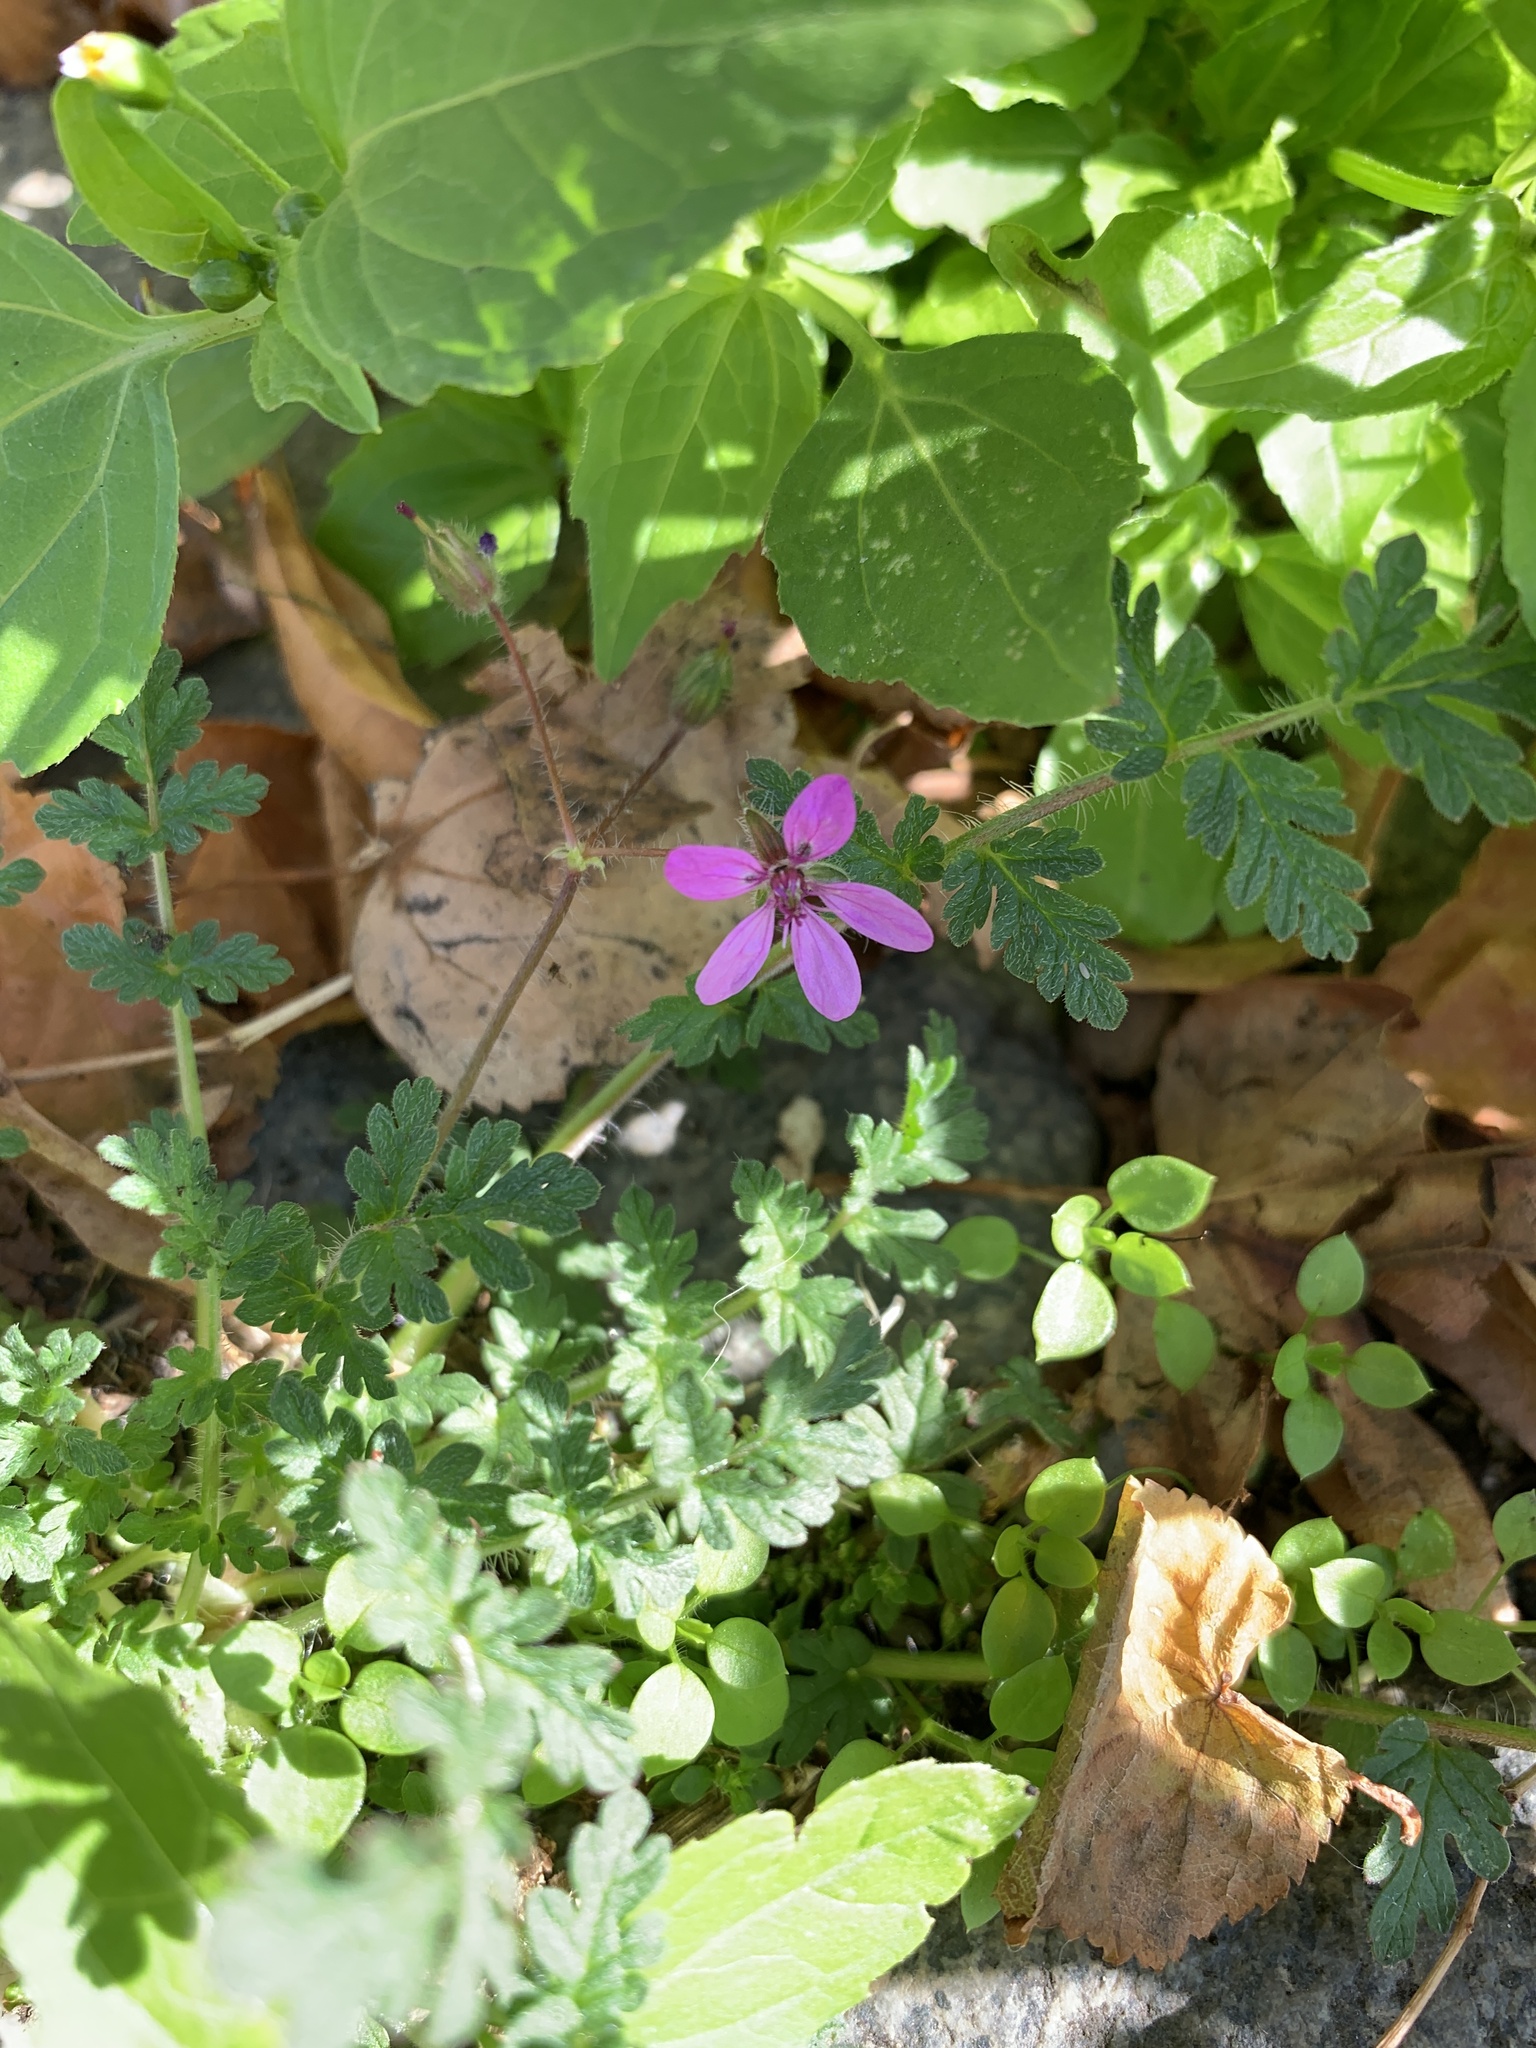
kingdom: Plantae
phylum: Tracheophyta
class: Magnoliopsida
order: Geraniales
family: Geraniaceae
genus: Erodium
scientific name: Erodium cicutarium
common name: Common stork's-bill
